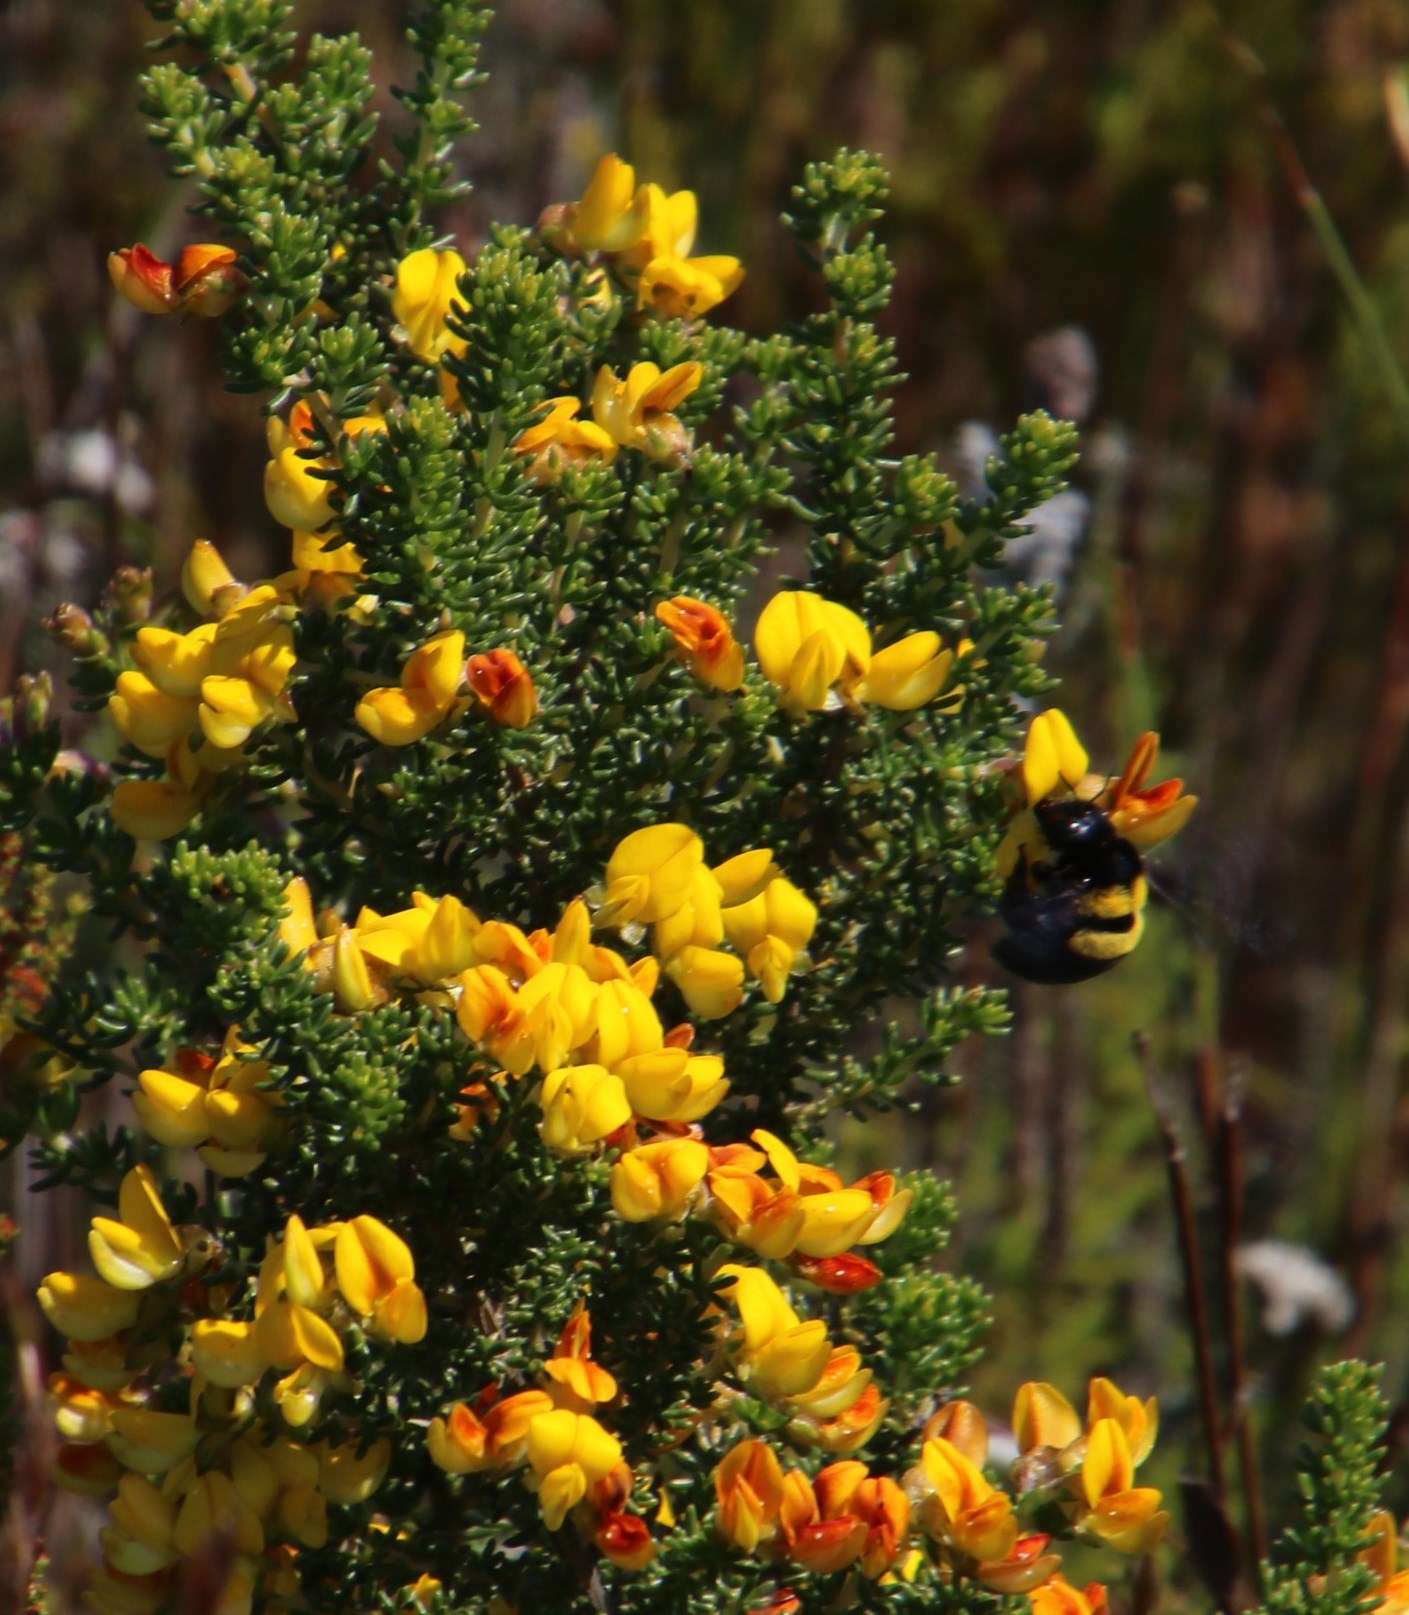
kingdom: Animalia
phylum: Arthropoda
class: Insecta
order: Hymenoptera
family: Apidae
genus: Xylocopa
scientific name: Xylocopa caffra
